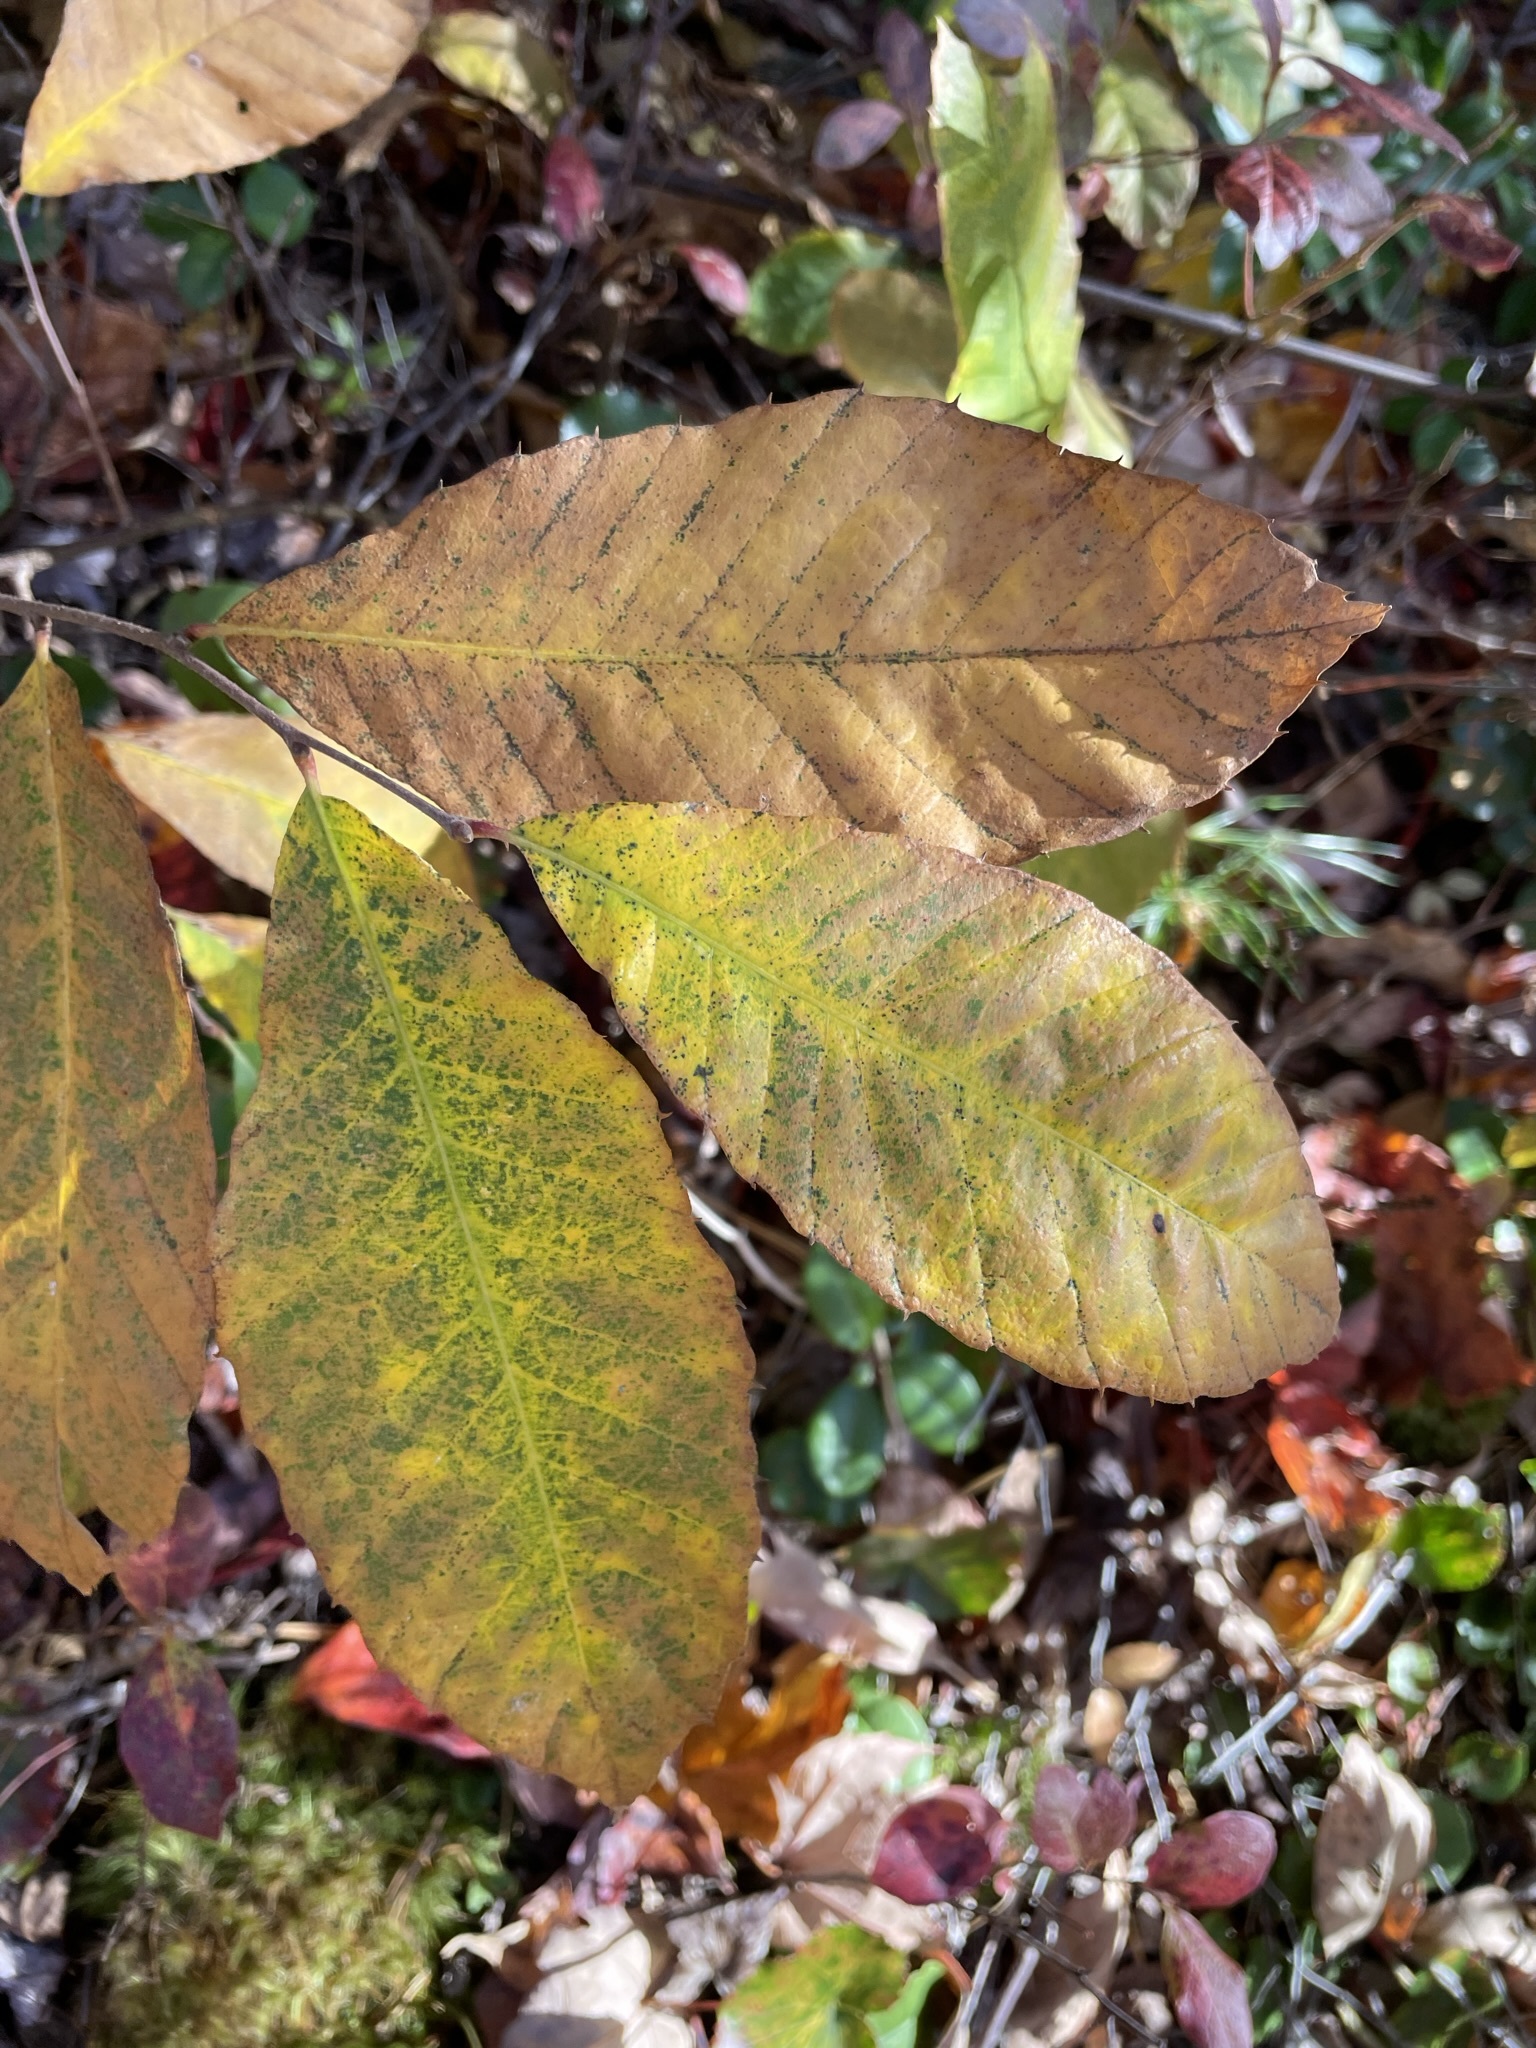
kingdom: Plantae
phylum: Tracheophyta
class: Magnoliopsida
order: Fagales
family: Fagaceae
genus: Castanea
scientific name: Castanea pumila
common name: Chinkapin
